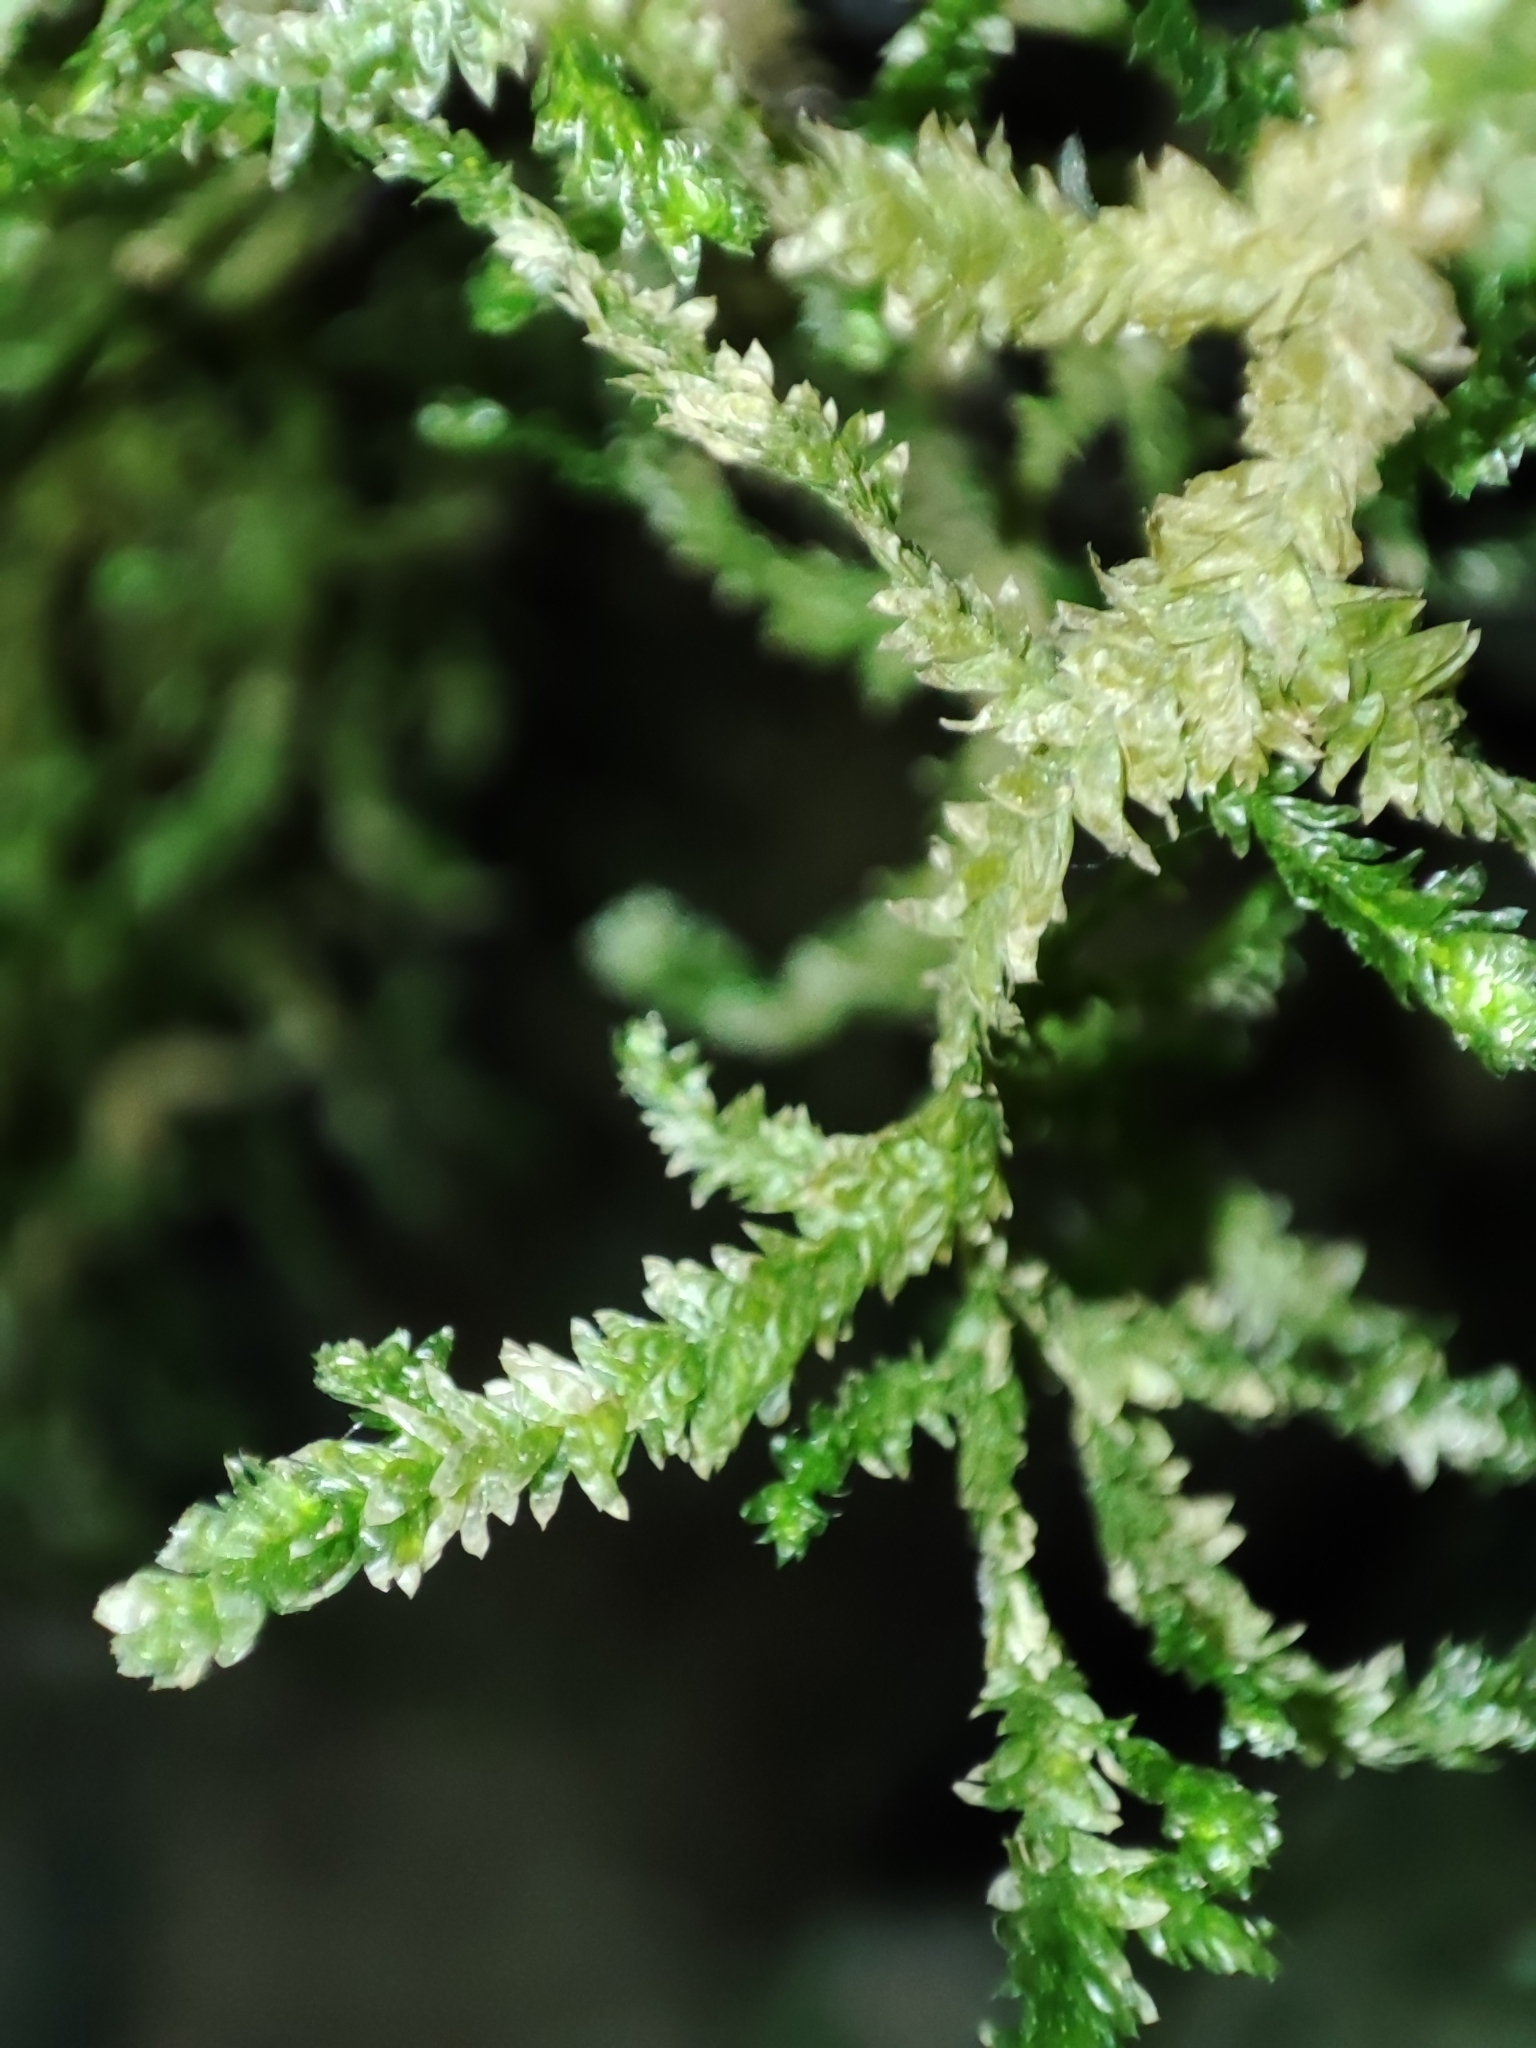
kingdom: Plantae
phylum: Bryophyta
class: Bryopsida
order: Hypnales
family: Neckeraceae
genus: Alleniella
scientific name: Alleniella complanata
